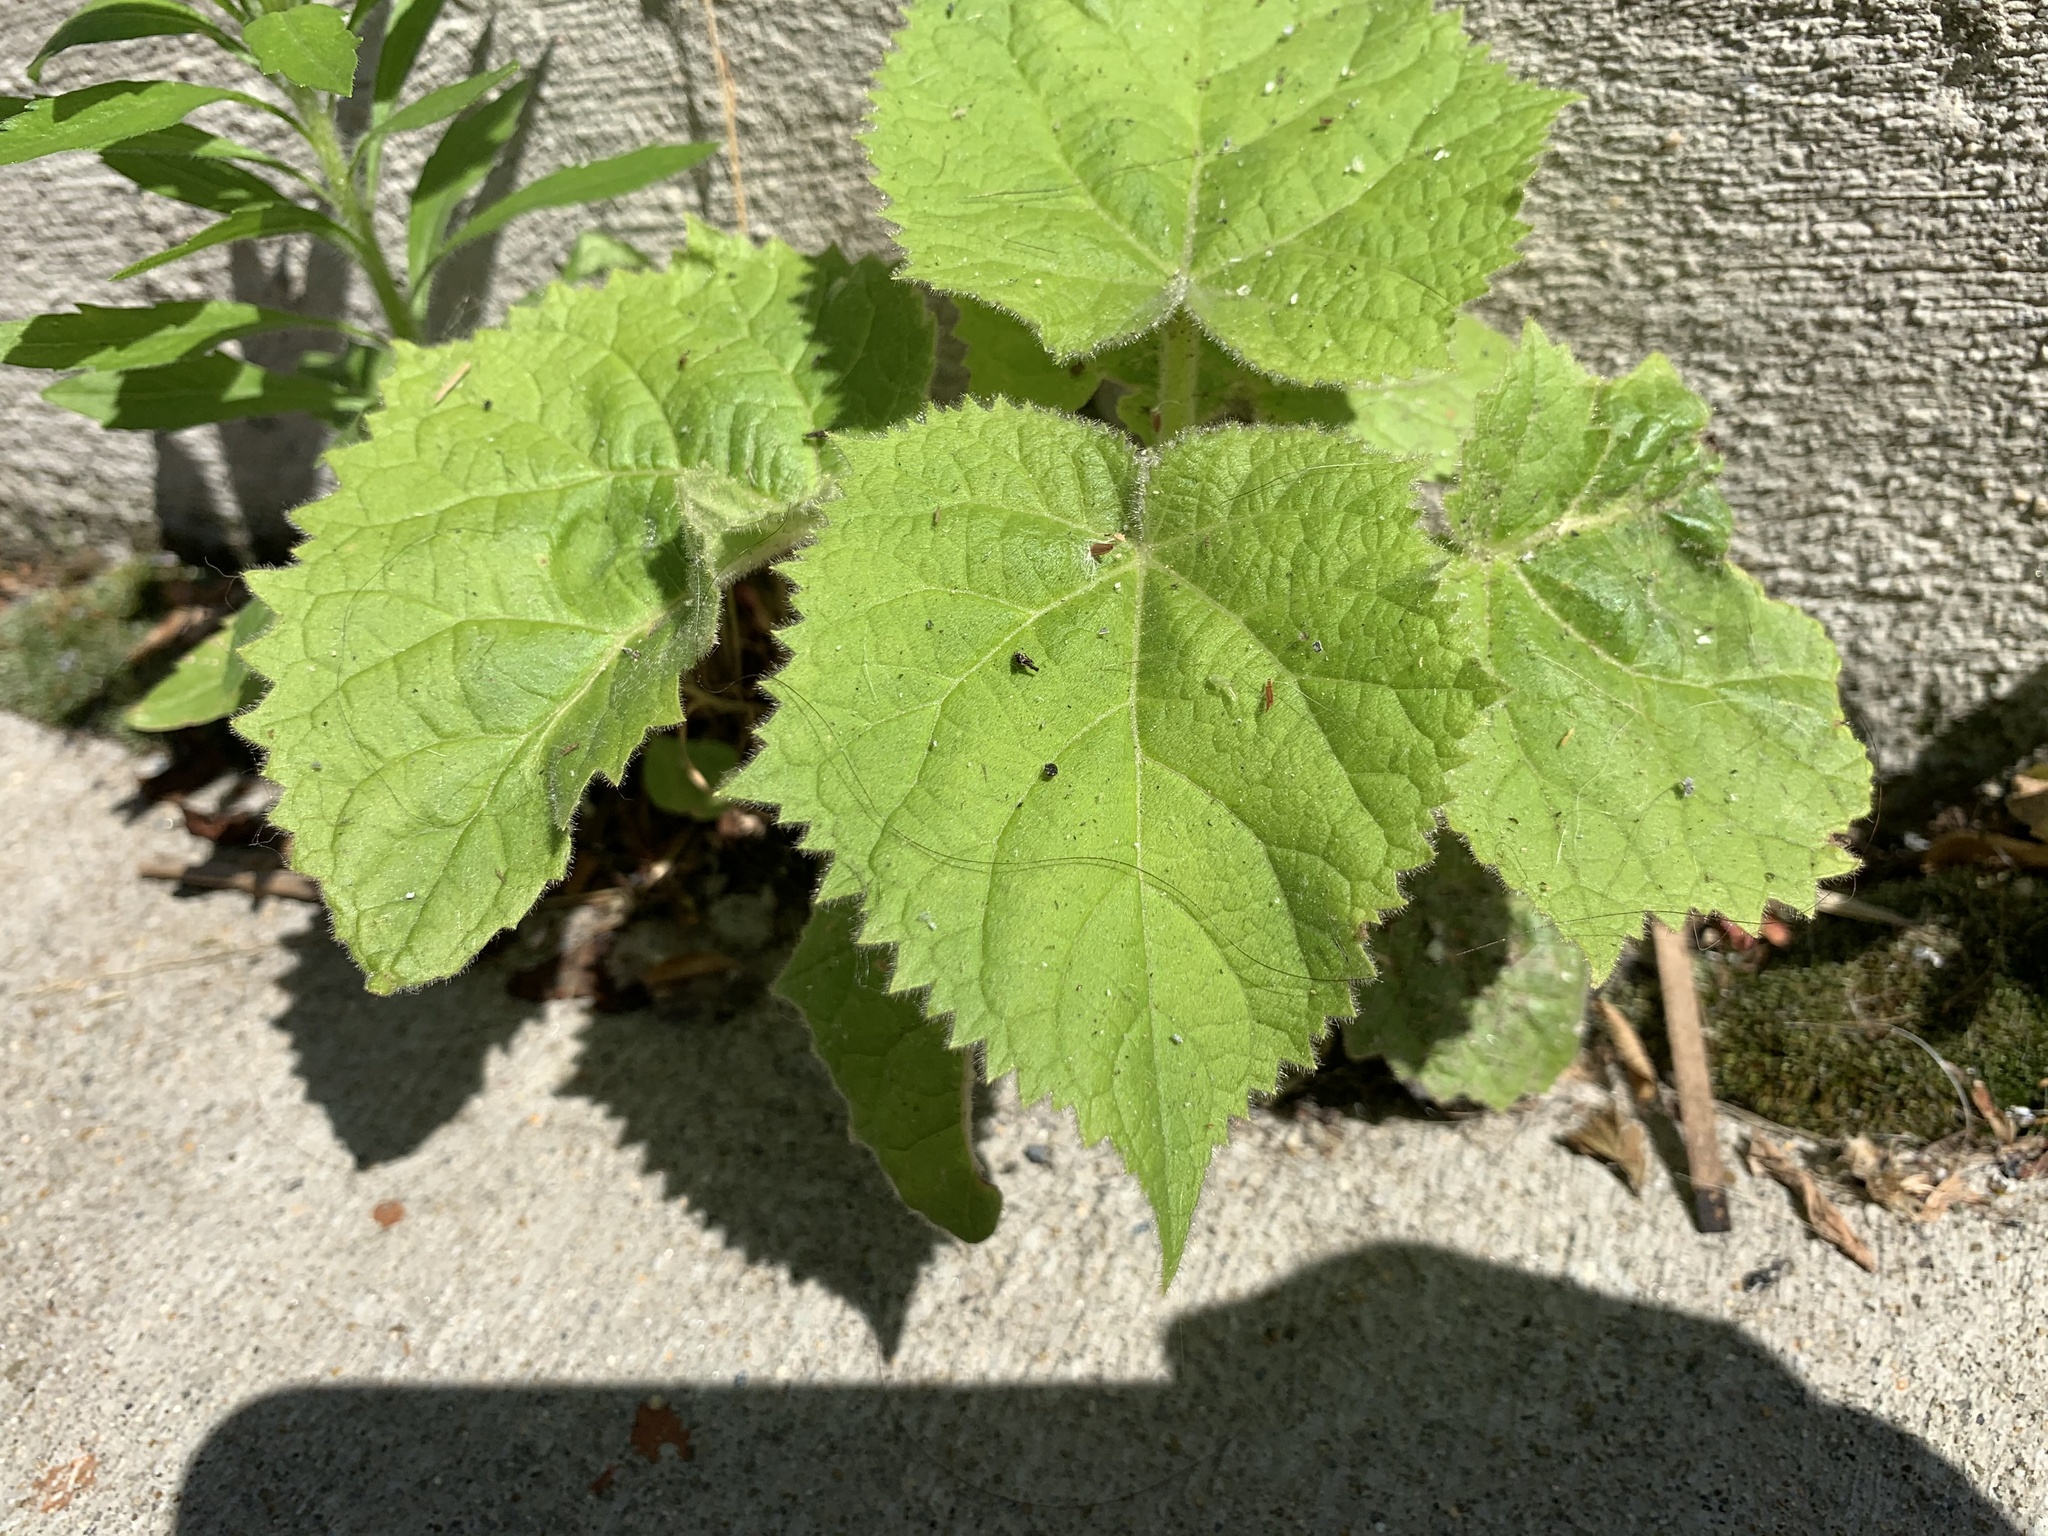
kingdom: Plantae
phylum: Tracheophyta
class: Magnoliopsida
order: Lamiales
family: Paulowniaceae
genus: Paulownia
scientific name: Paulownia tomentosa
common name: Foxglove-tree
